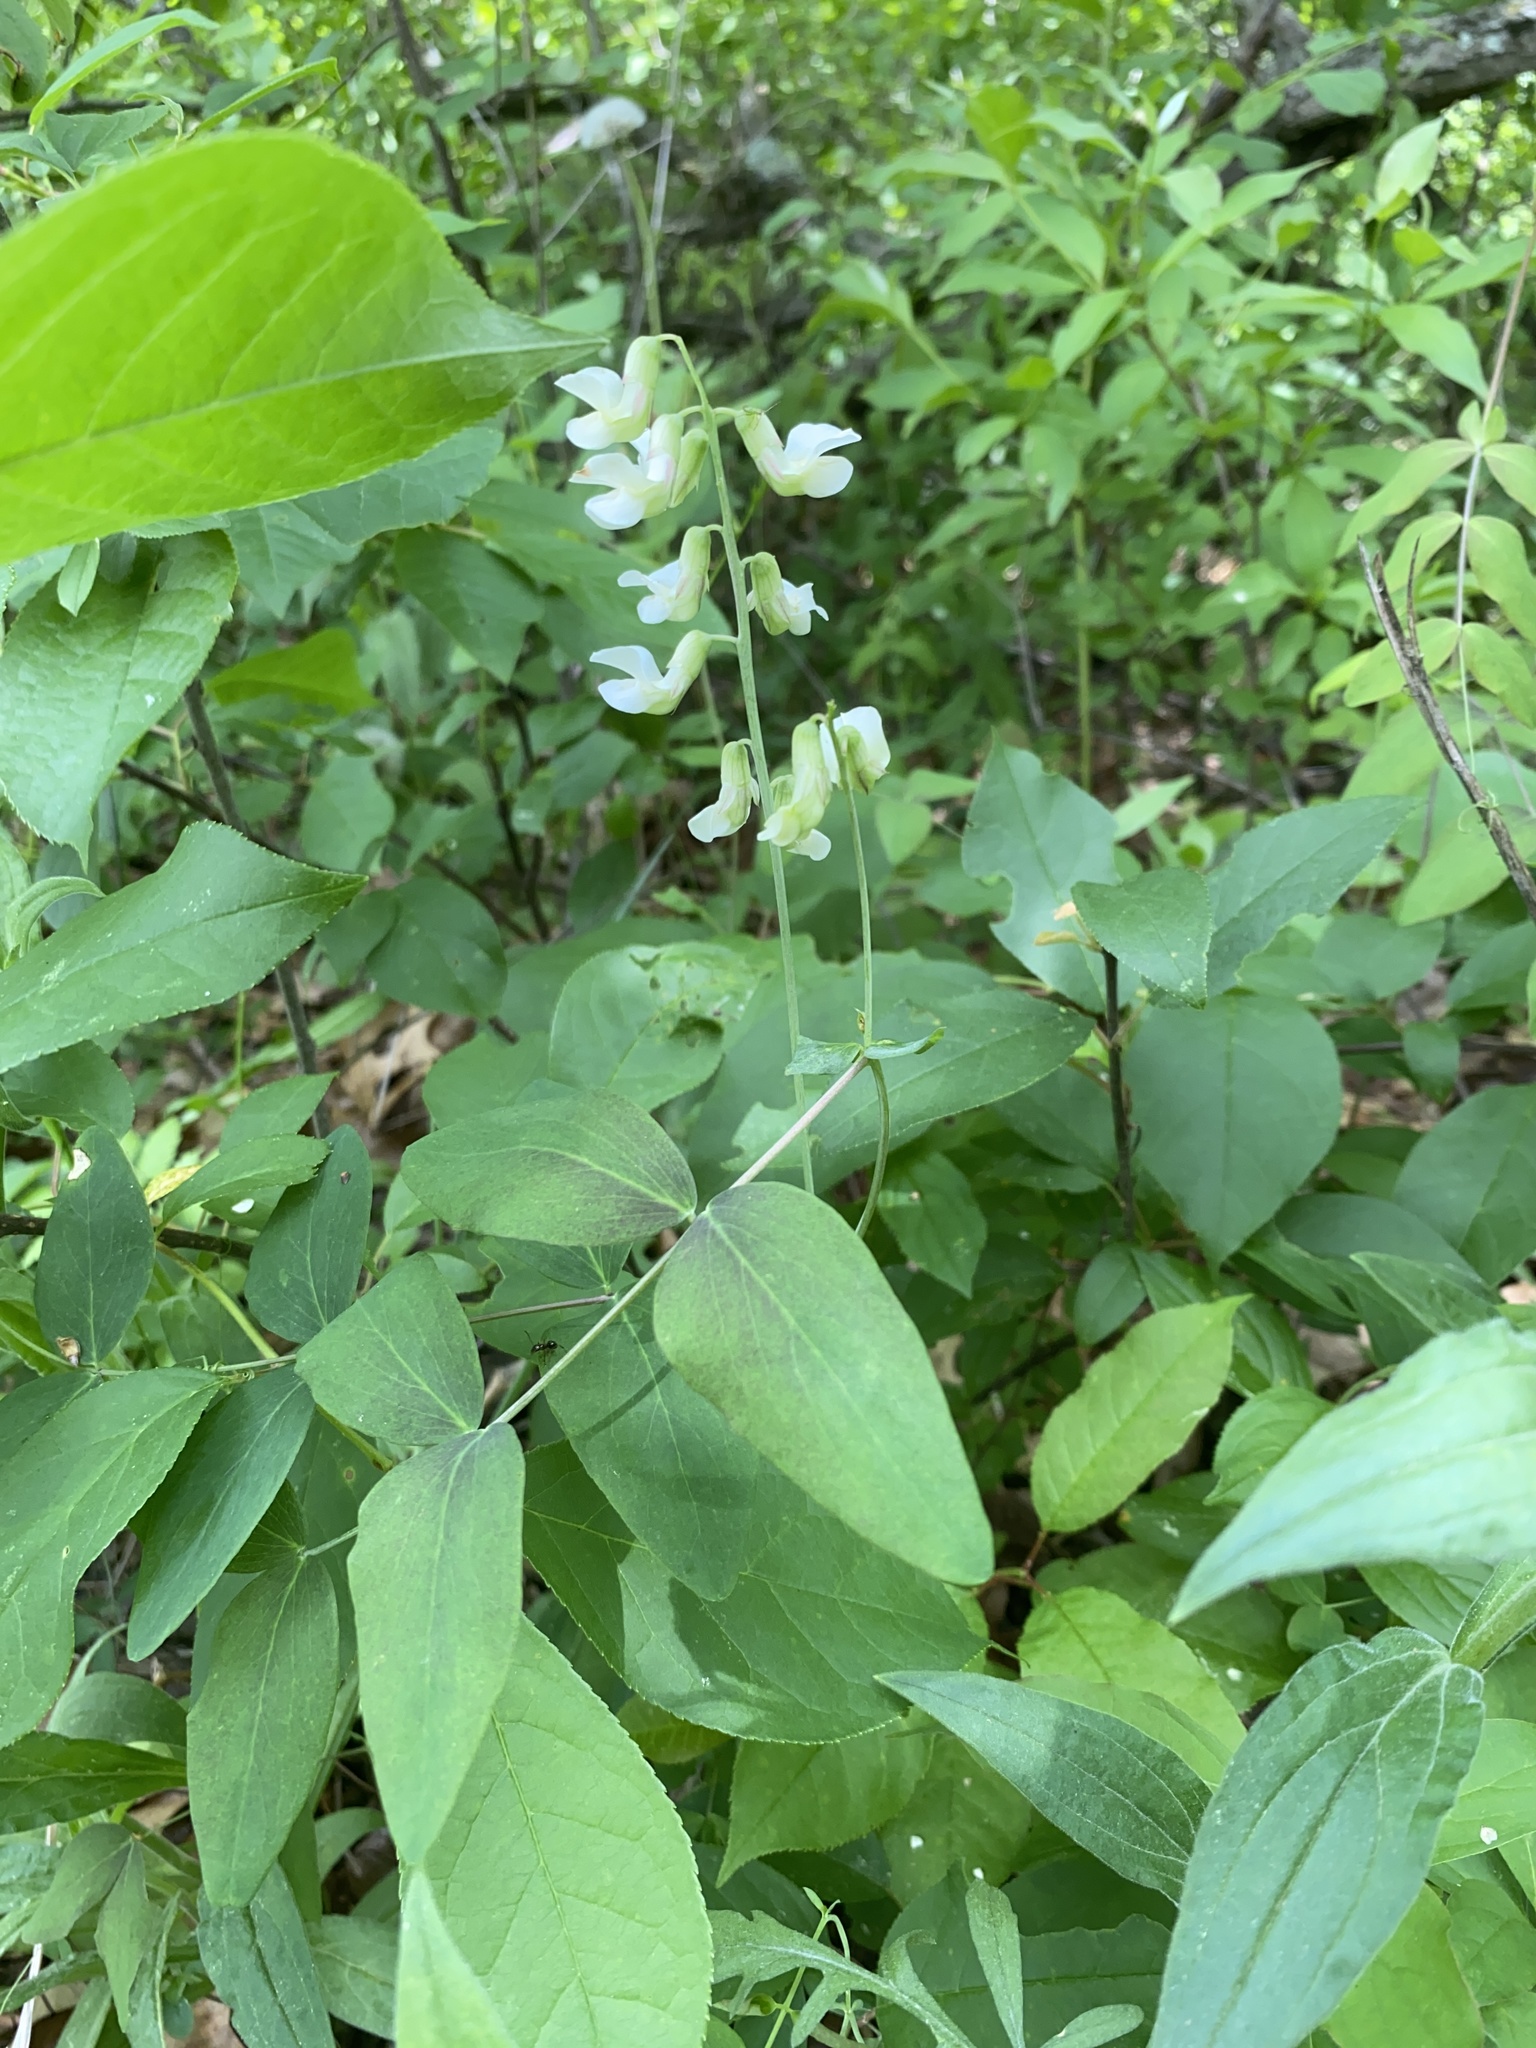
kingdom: Plantae
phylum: Tracheophyta
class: Magnoliopsida
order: Fabales
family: Fabaceae
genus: Lathyrus
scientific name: Lathyrus ochroleucus
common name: Pale vetchling
